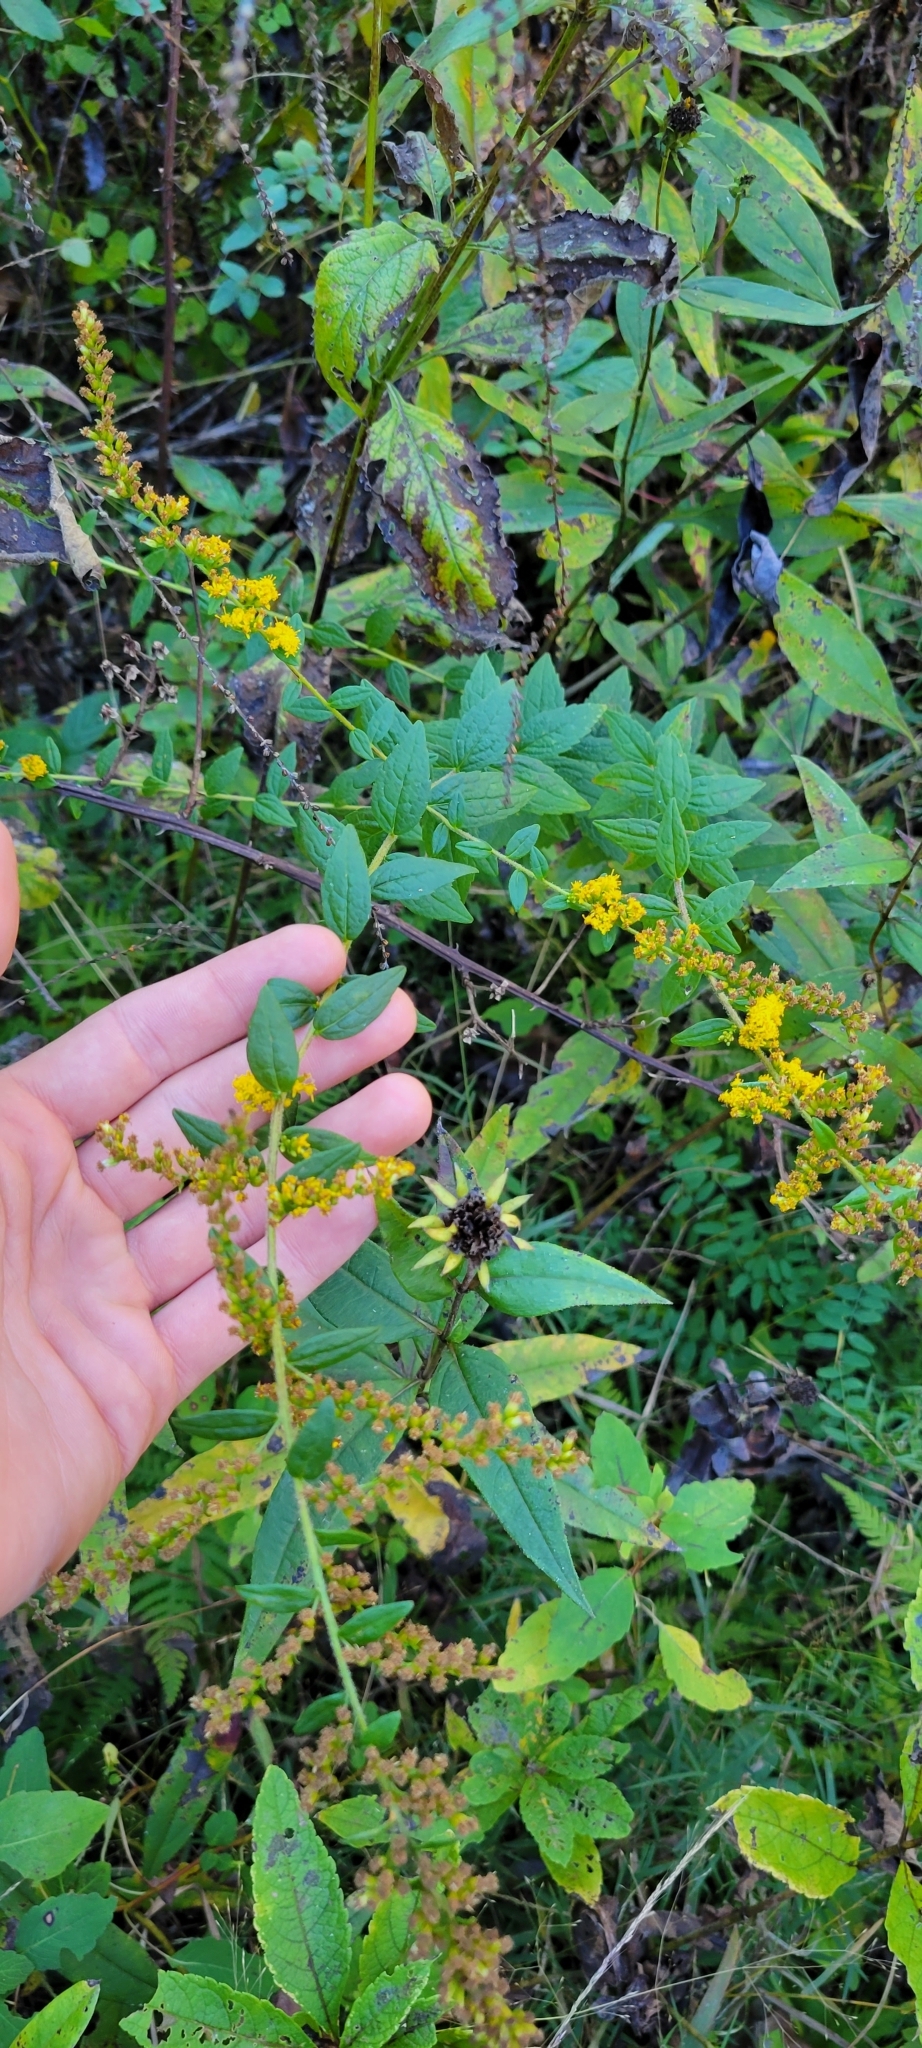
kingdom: Plantae
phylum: Tracheophyta
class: Magnoliopsida
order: Asterales
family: Asteraceae
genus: Solidago
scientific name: Solidago rugosa
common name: Rough-stemmed goldenrod
